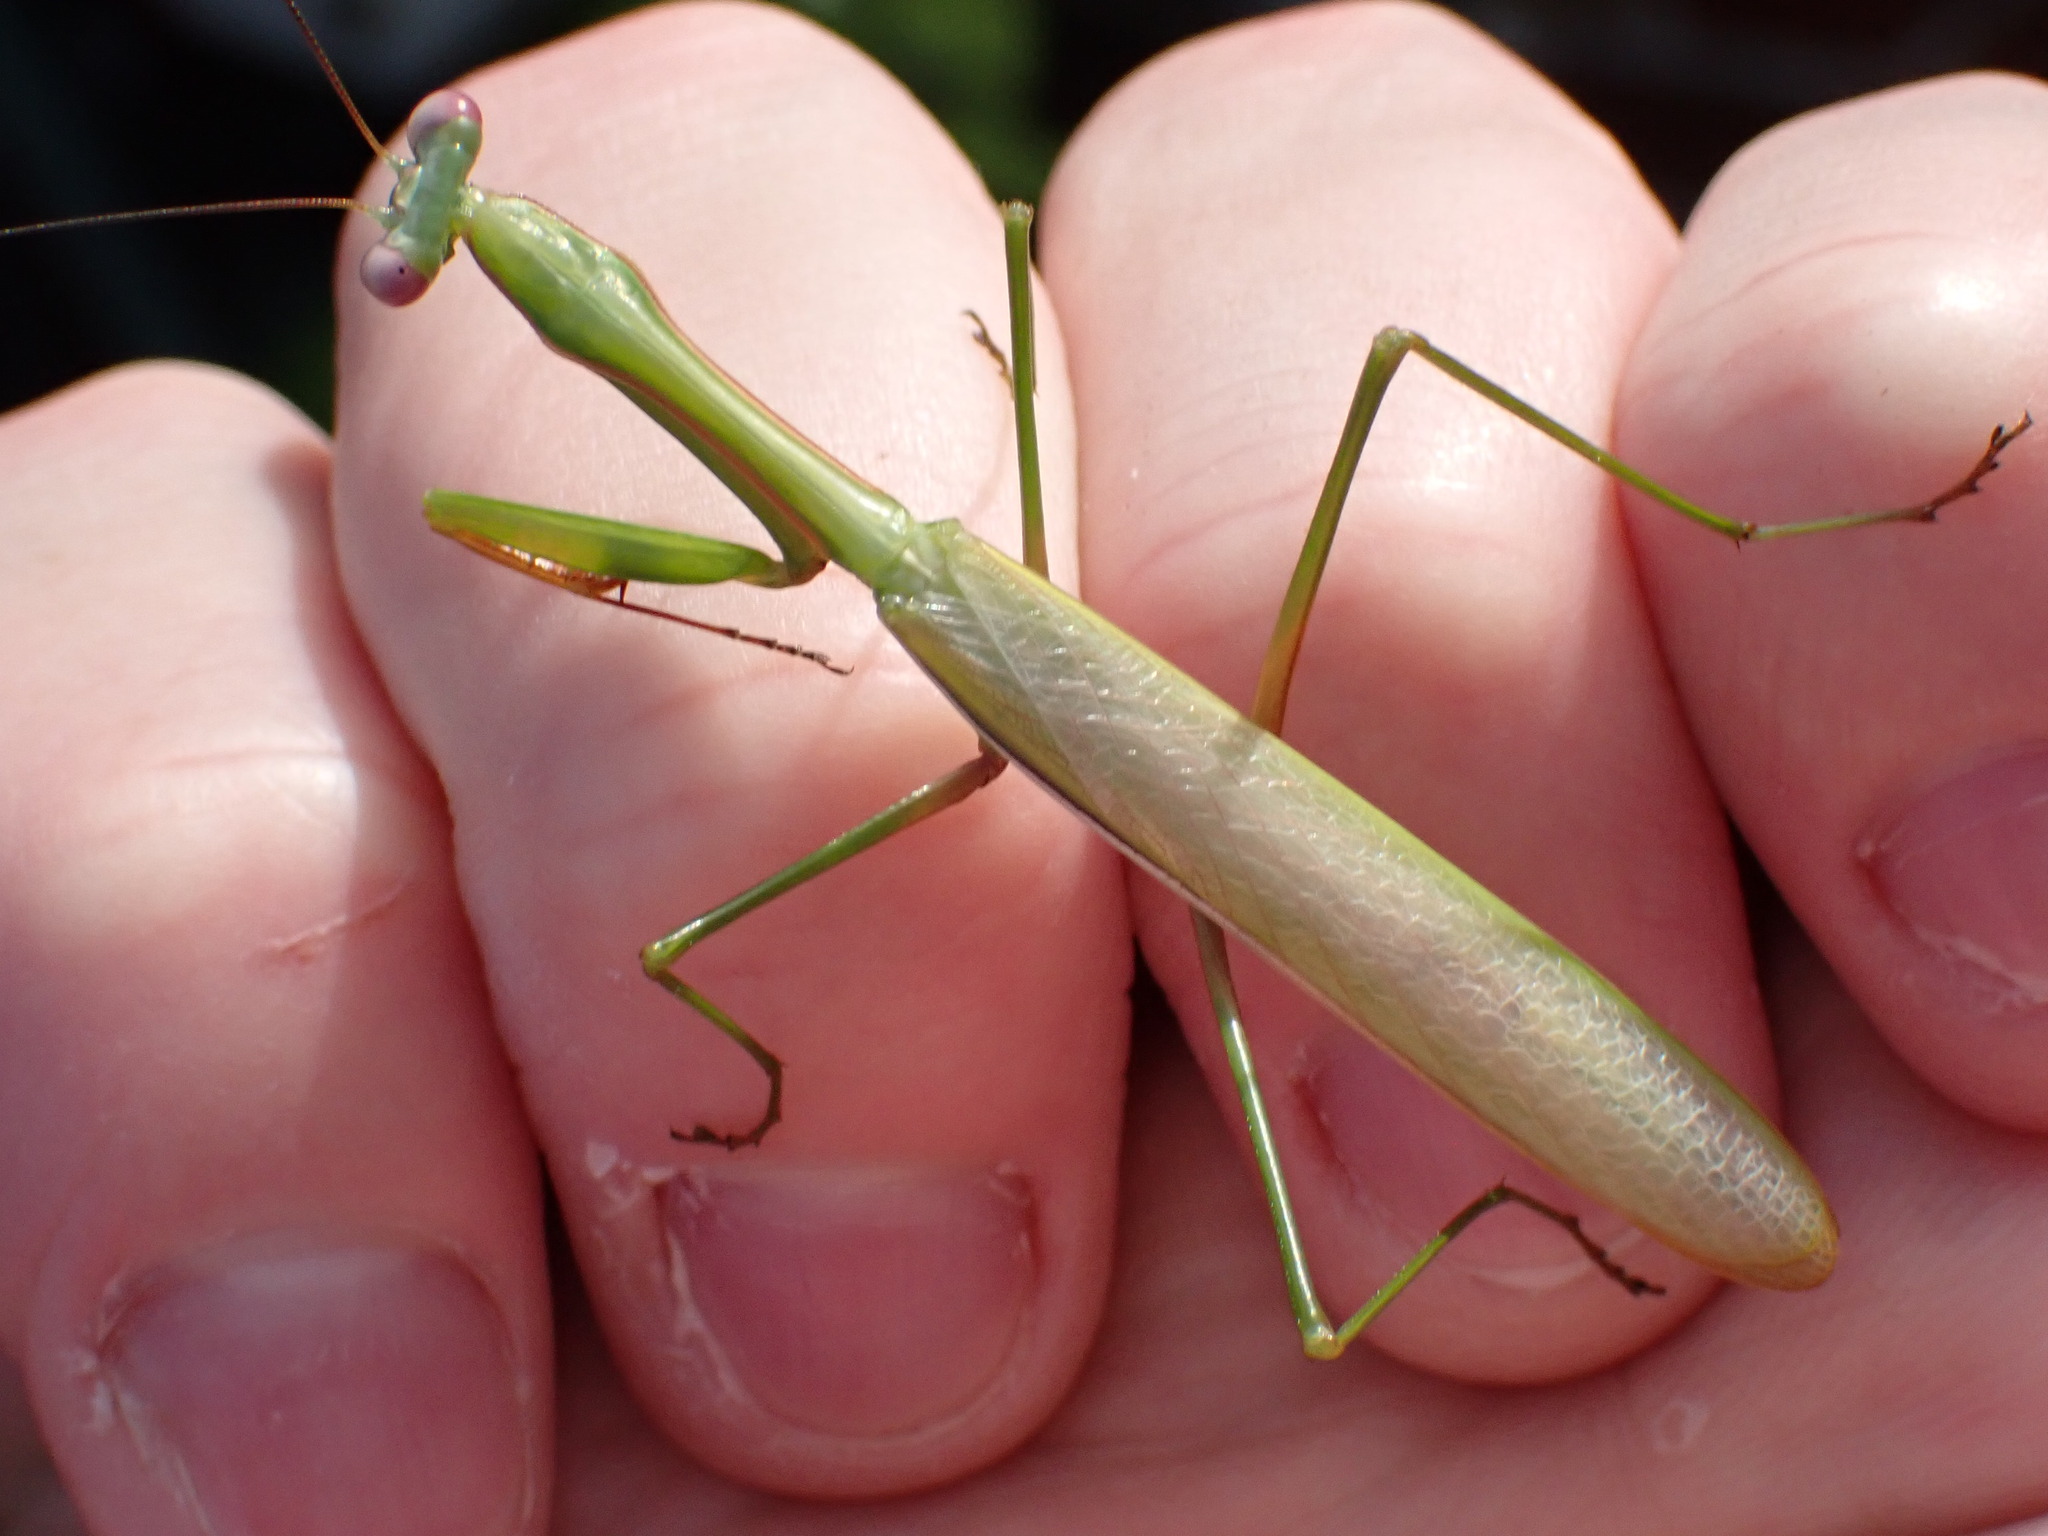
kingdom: Animalia
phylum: Arthropoda
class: Insecta
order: Mantodea
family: Mantidae
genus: Pseudomantis
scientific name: Pseudomantis albofimbriata
